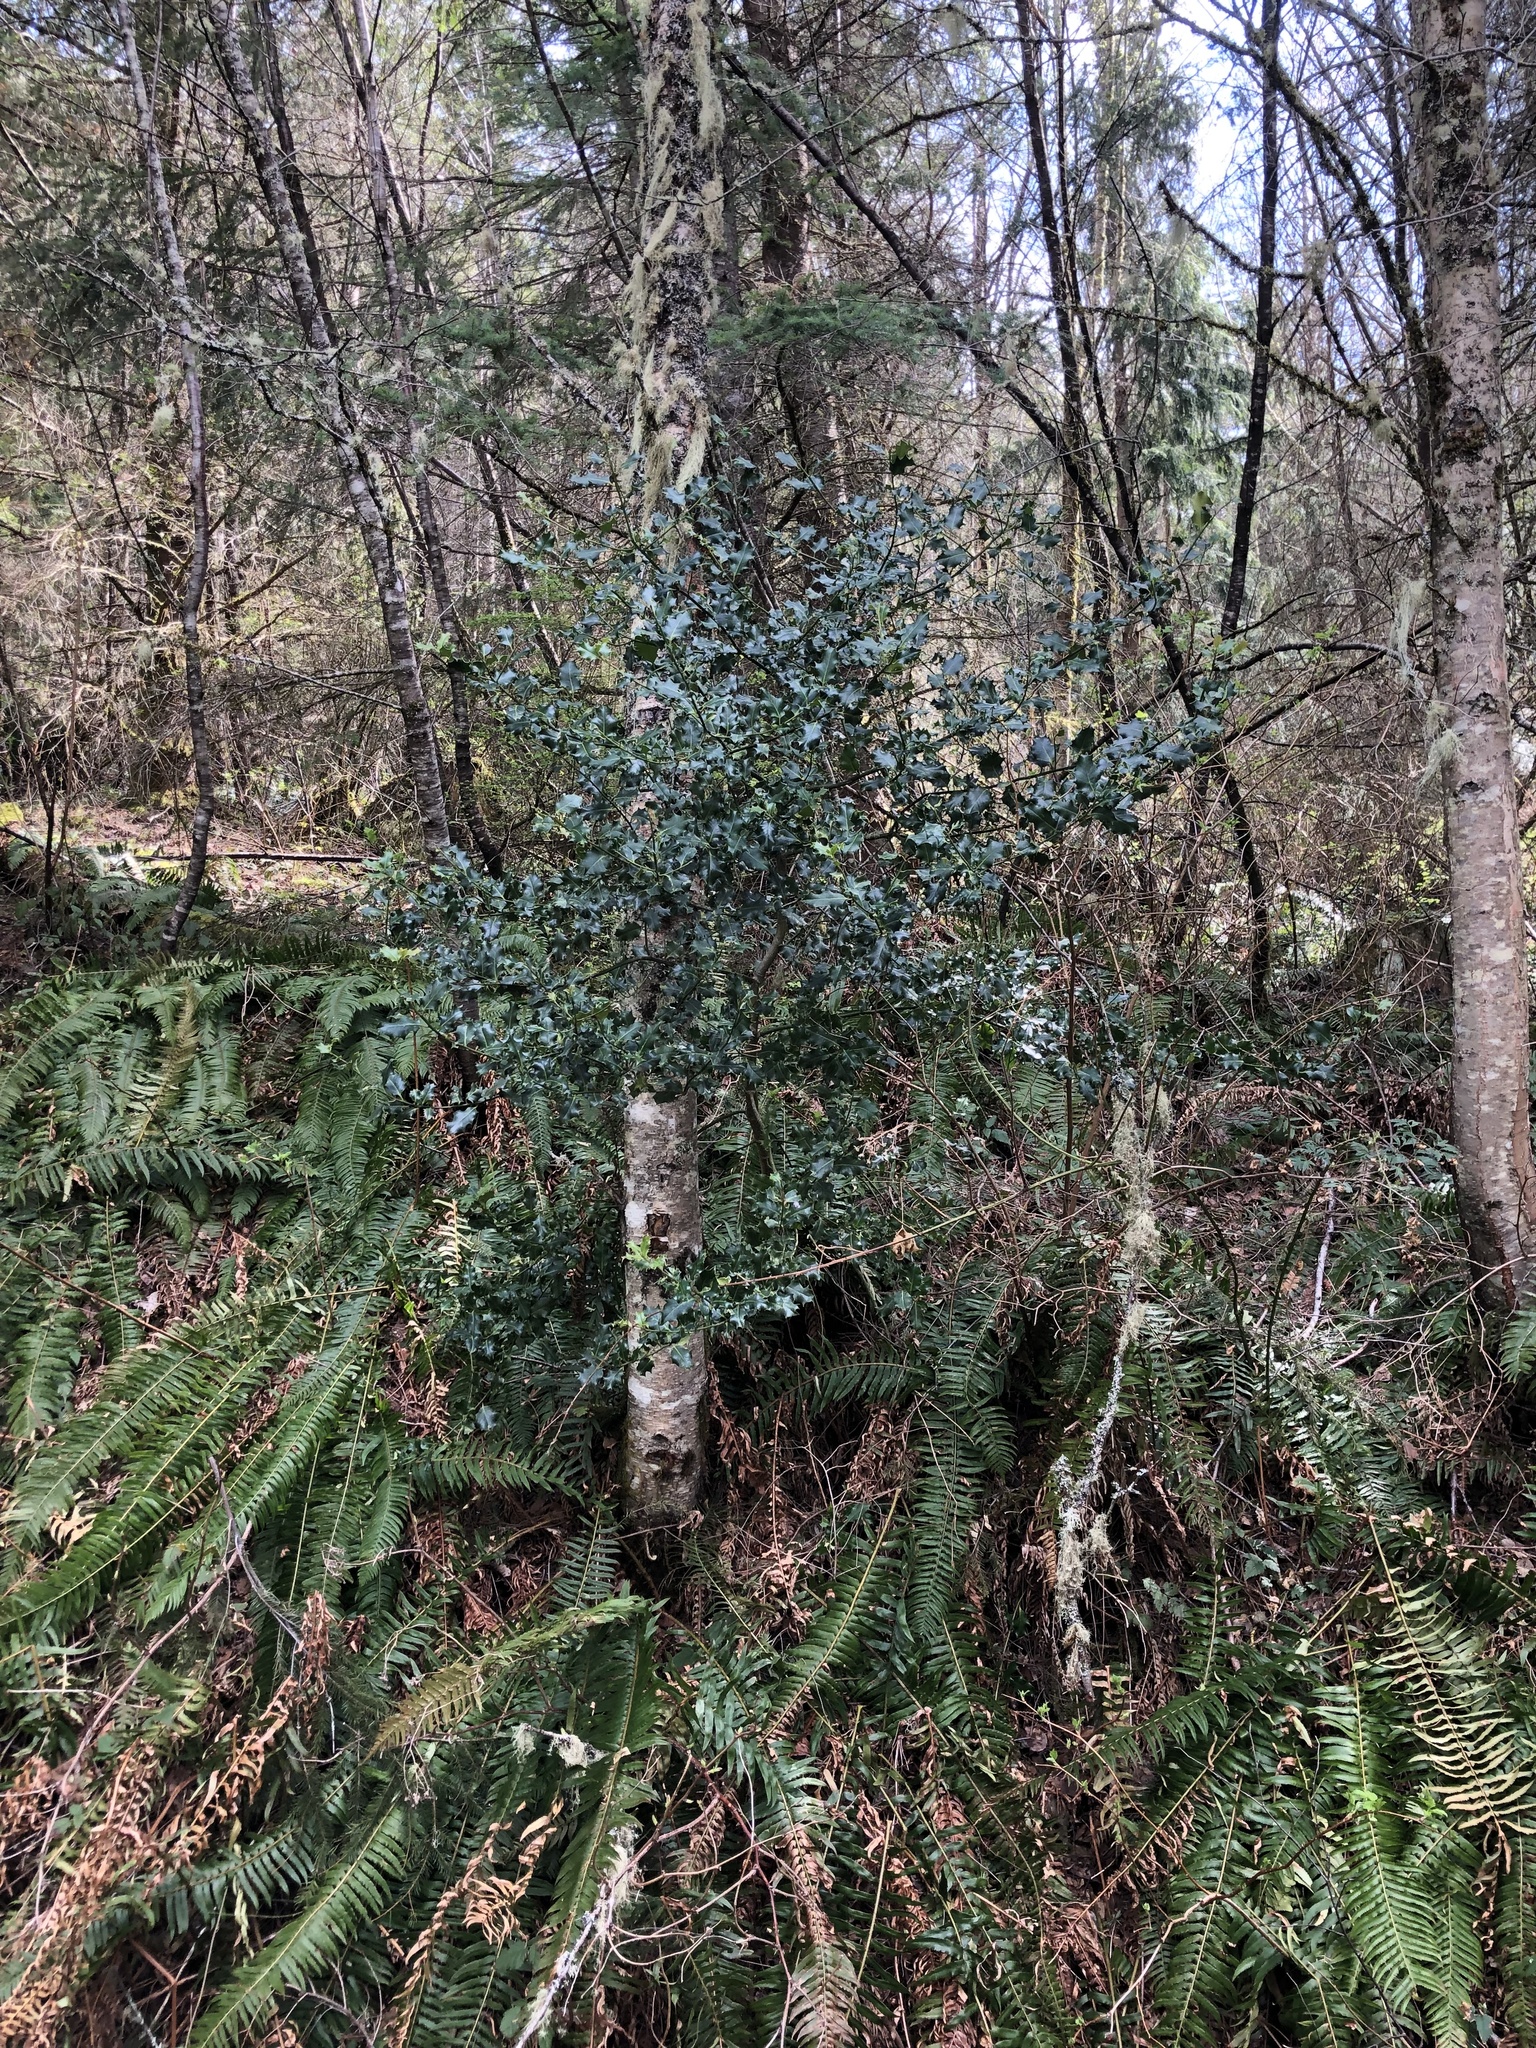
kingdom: Plantae
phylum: Tracheophyta
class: Magnoliopsida
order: Aquifoliales
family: Aquifoliaceae
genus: Ilex
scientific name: Ilex aquifolium
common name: English holly
